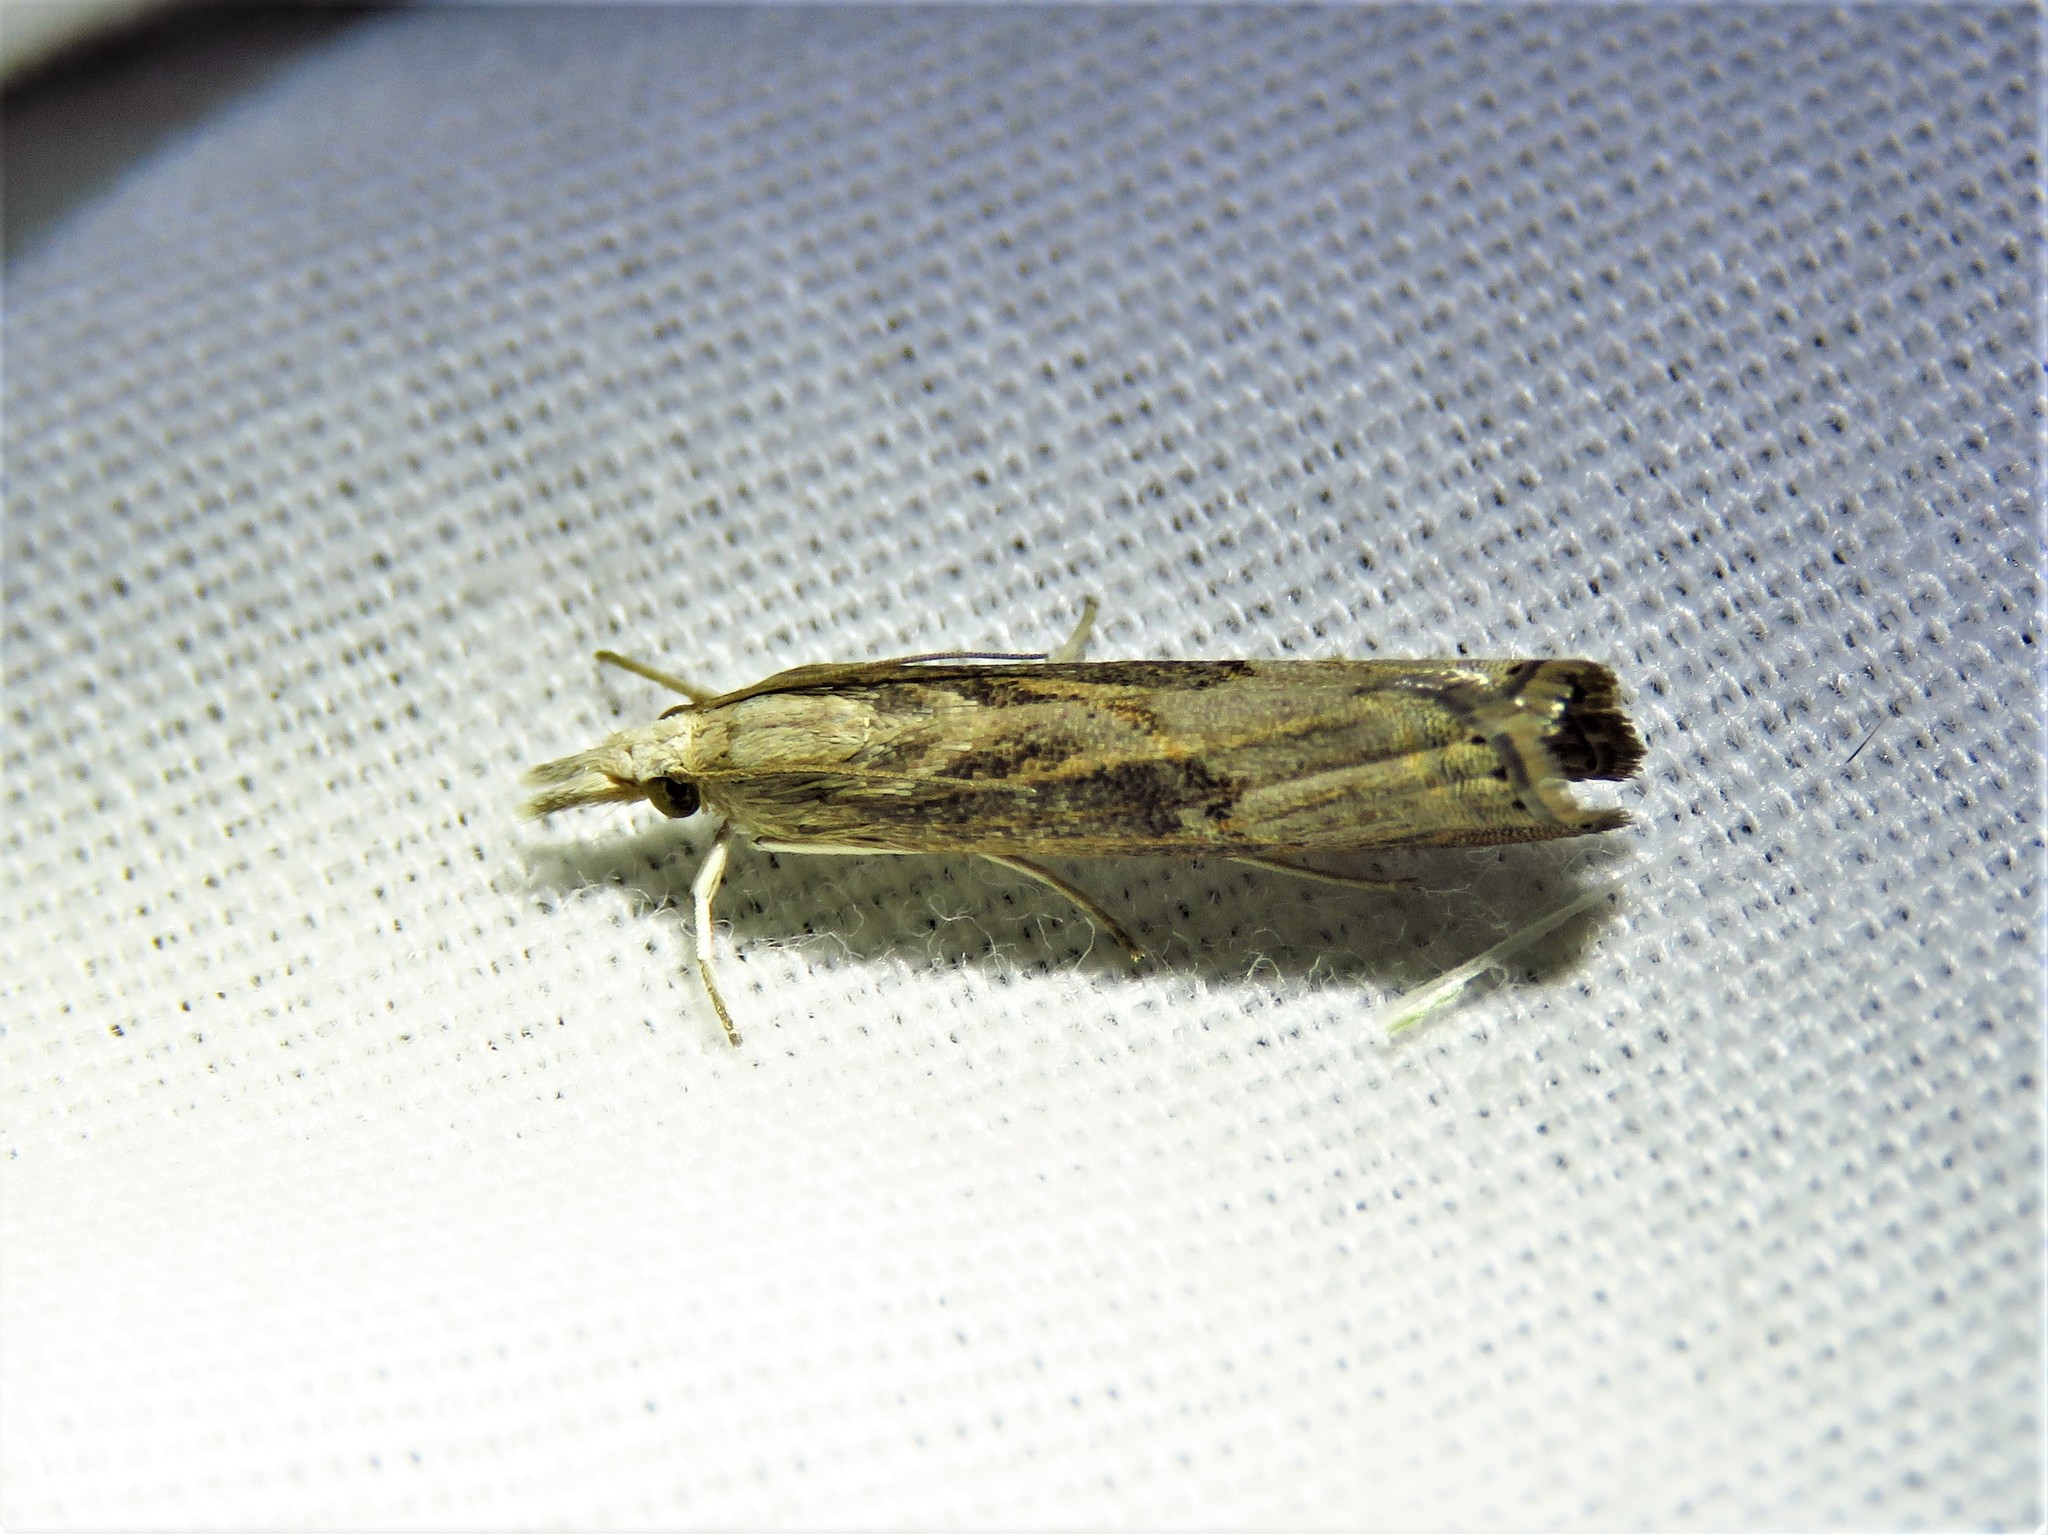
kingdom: Animalia
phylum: Arthropoda
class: Insecta
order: Lepidoptera
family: Crambidae
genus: Parapediasia
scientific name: Parapediasia teterellus
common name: Bluegrass webworm moth
